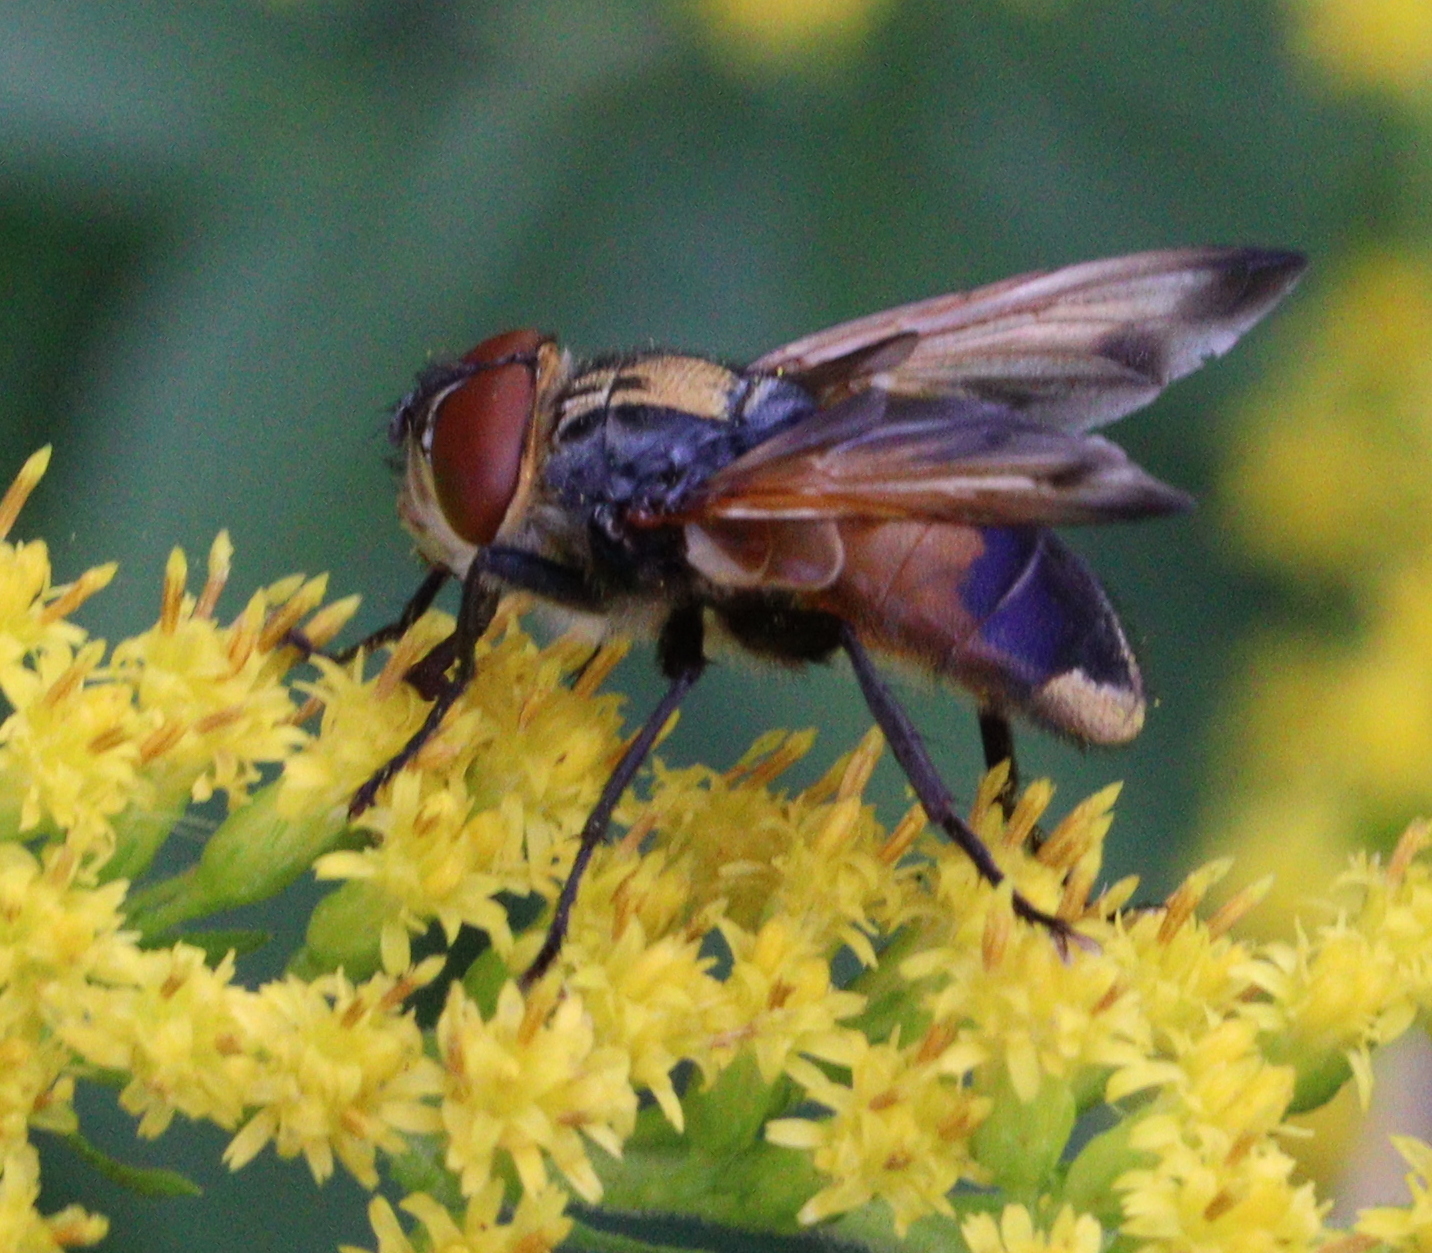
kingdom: Animalia
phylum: Arthropoda
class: Insecta
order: Diptera
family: Tachinidae
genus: Phasia
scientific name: Phasia aurigera
